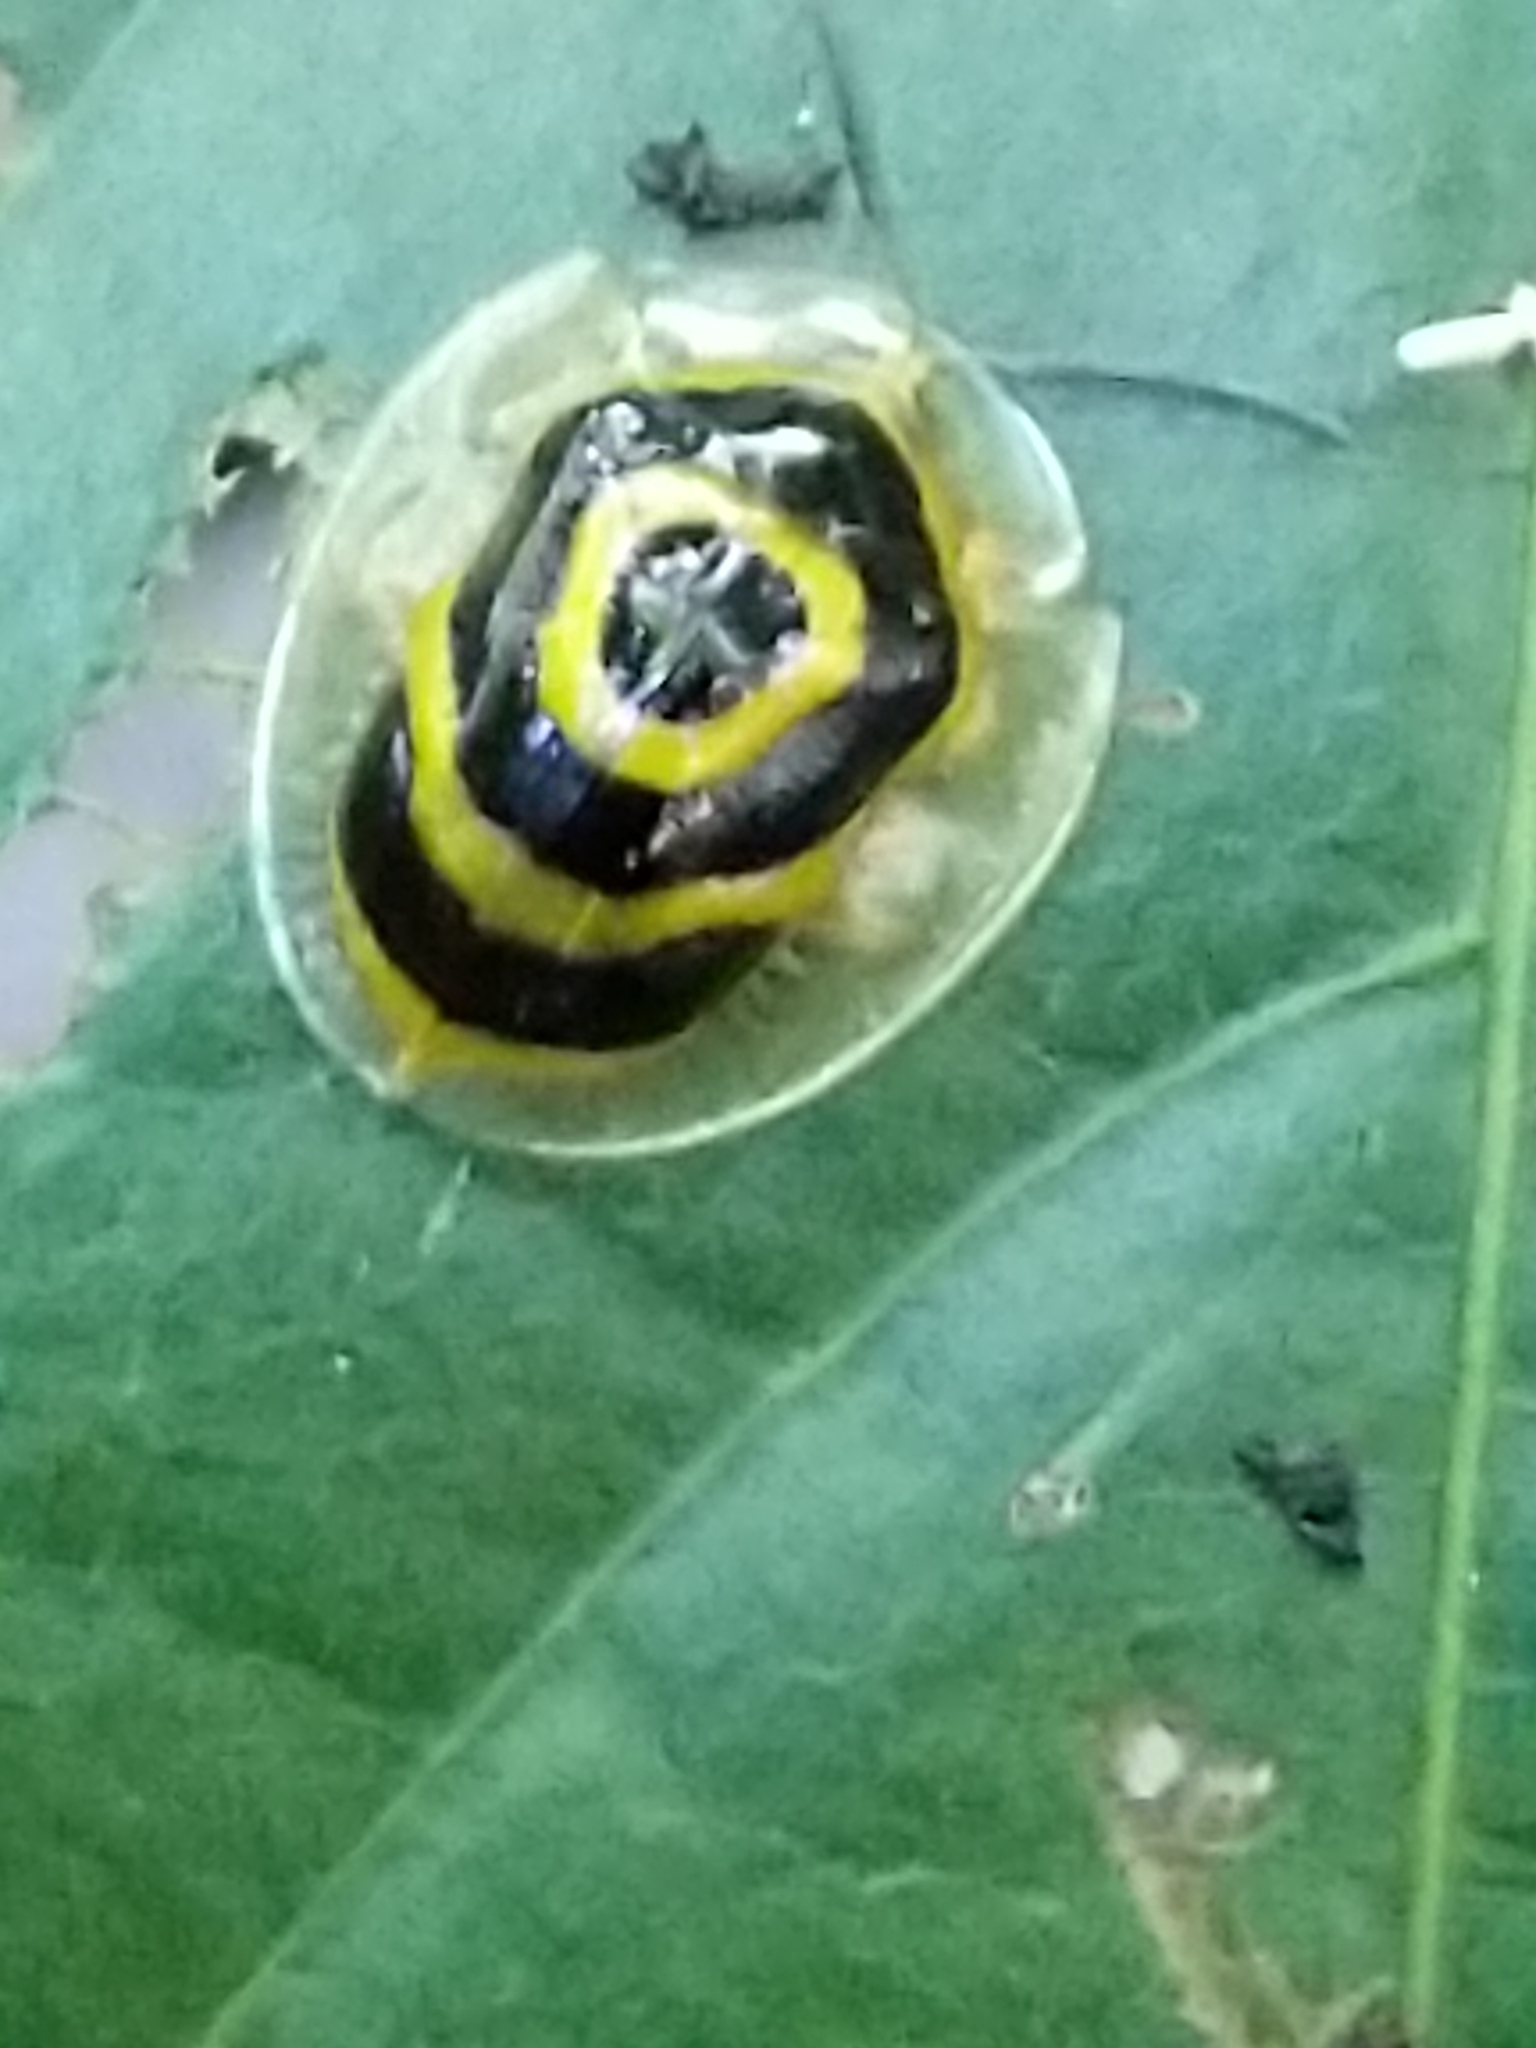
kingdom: Animalia
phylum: Arthropoda
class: Insecta
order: Coleoptera
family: Chrysomelidae
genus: Ischnocodia
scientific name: Ischnocodia annulus
